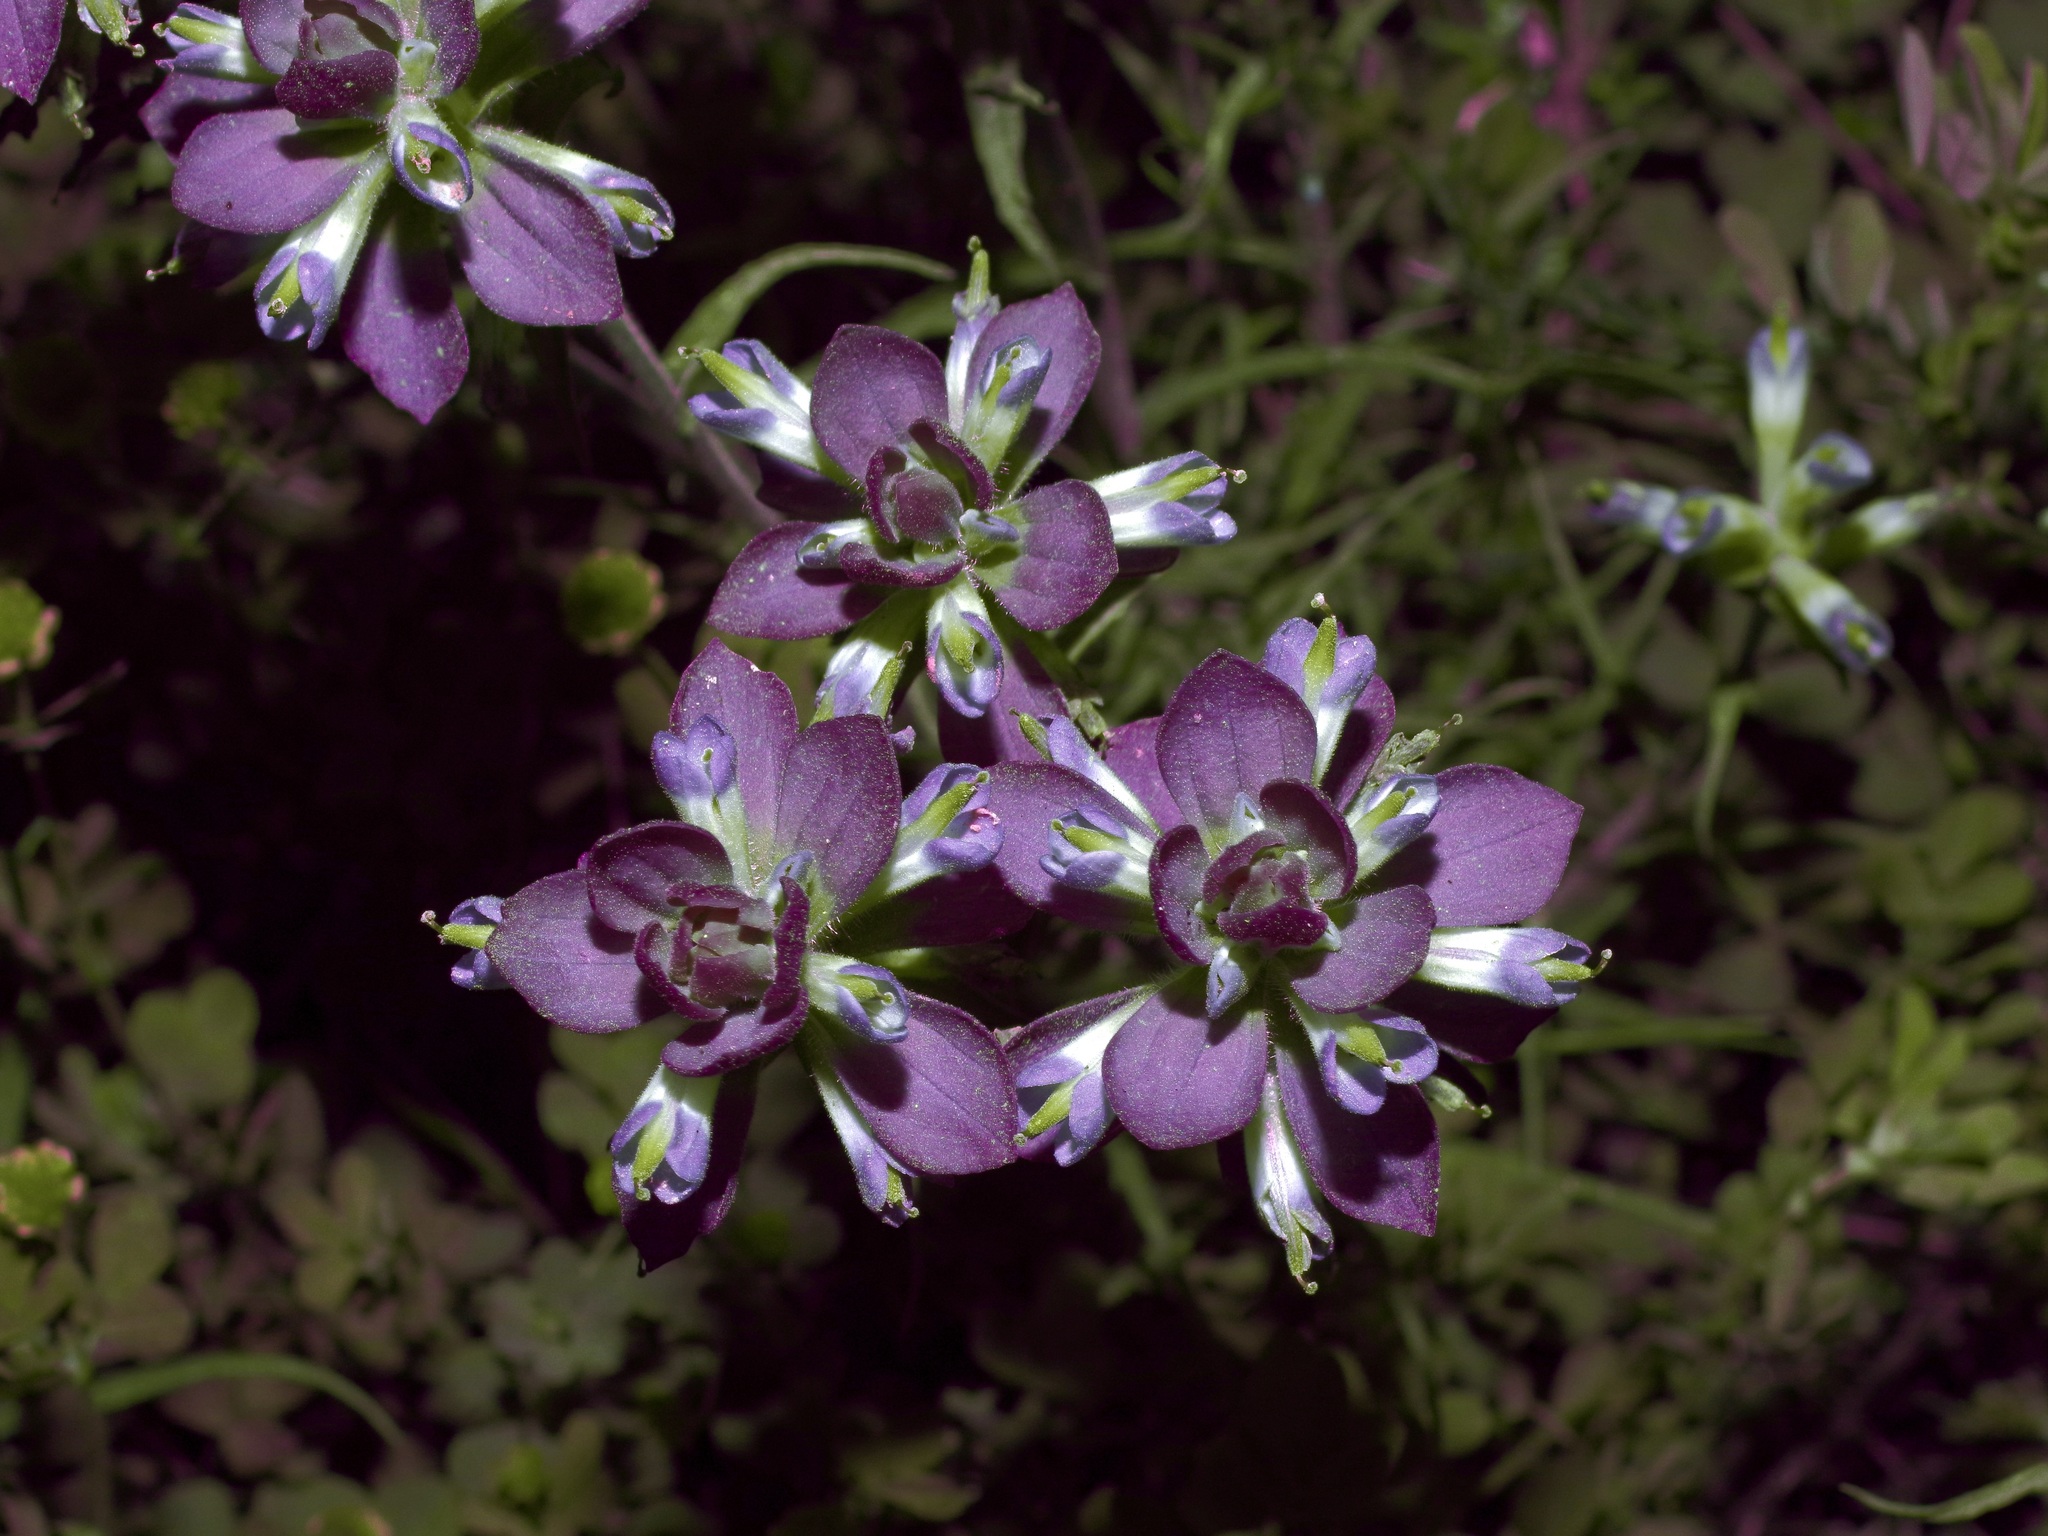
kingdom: Plantae
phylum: Tracheophyta
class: Magnoliopsida
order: Lamiales
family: Orobanchaceae
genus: Castilleja
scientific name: Castilleja indivisa
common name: Texas paintbrush
